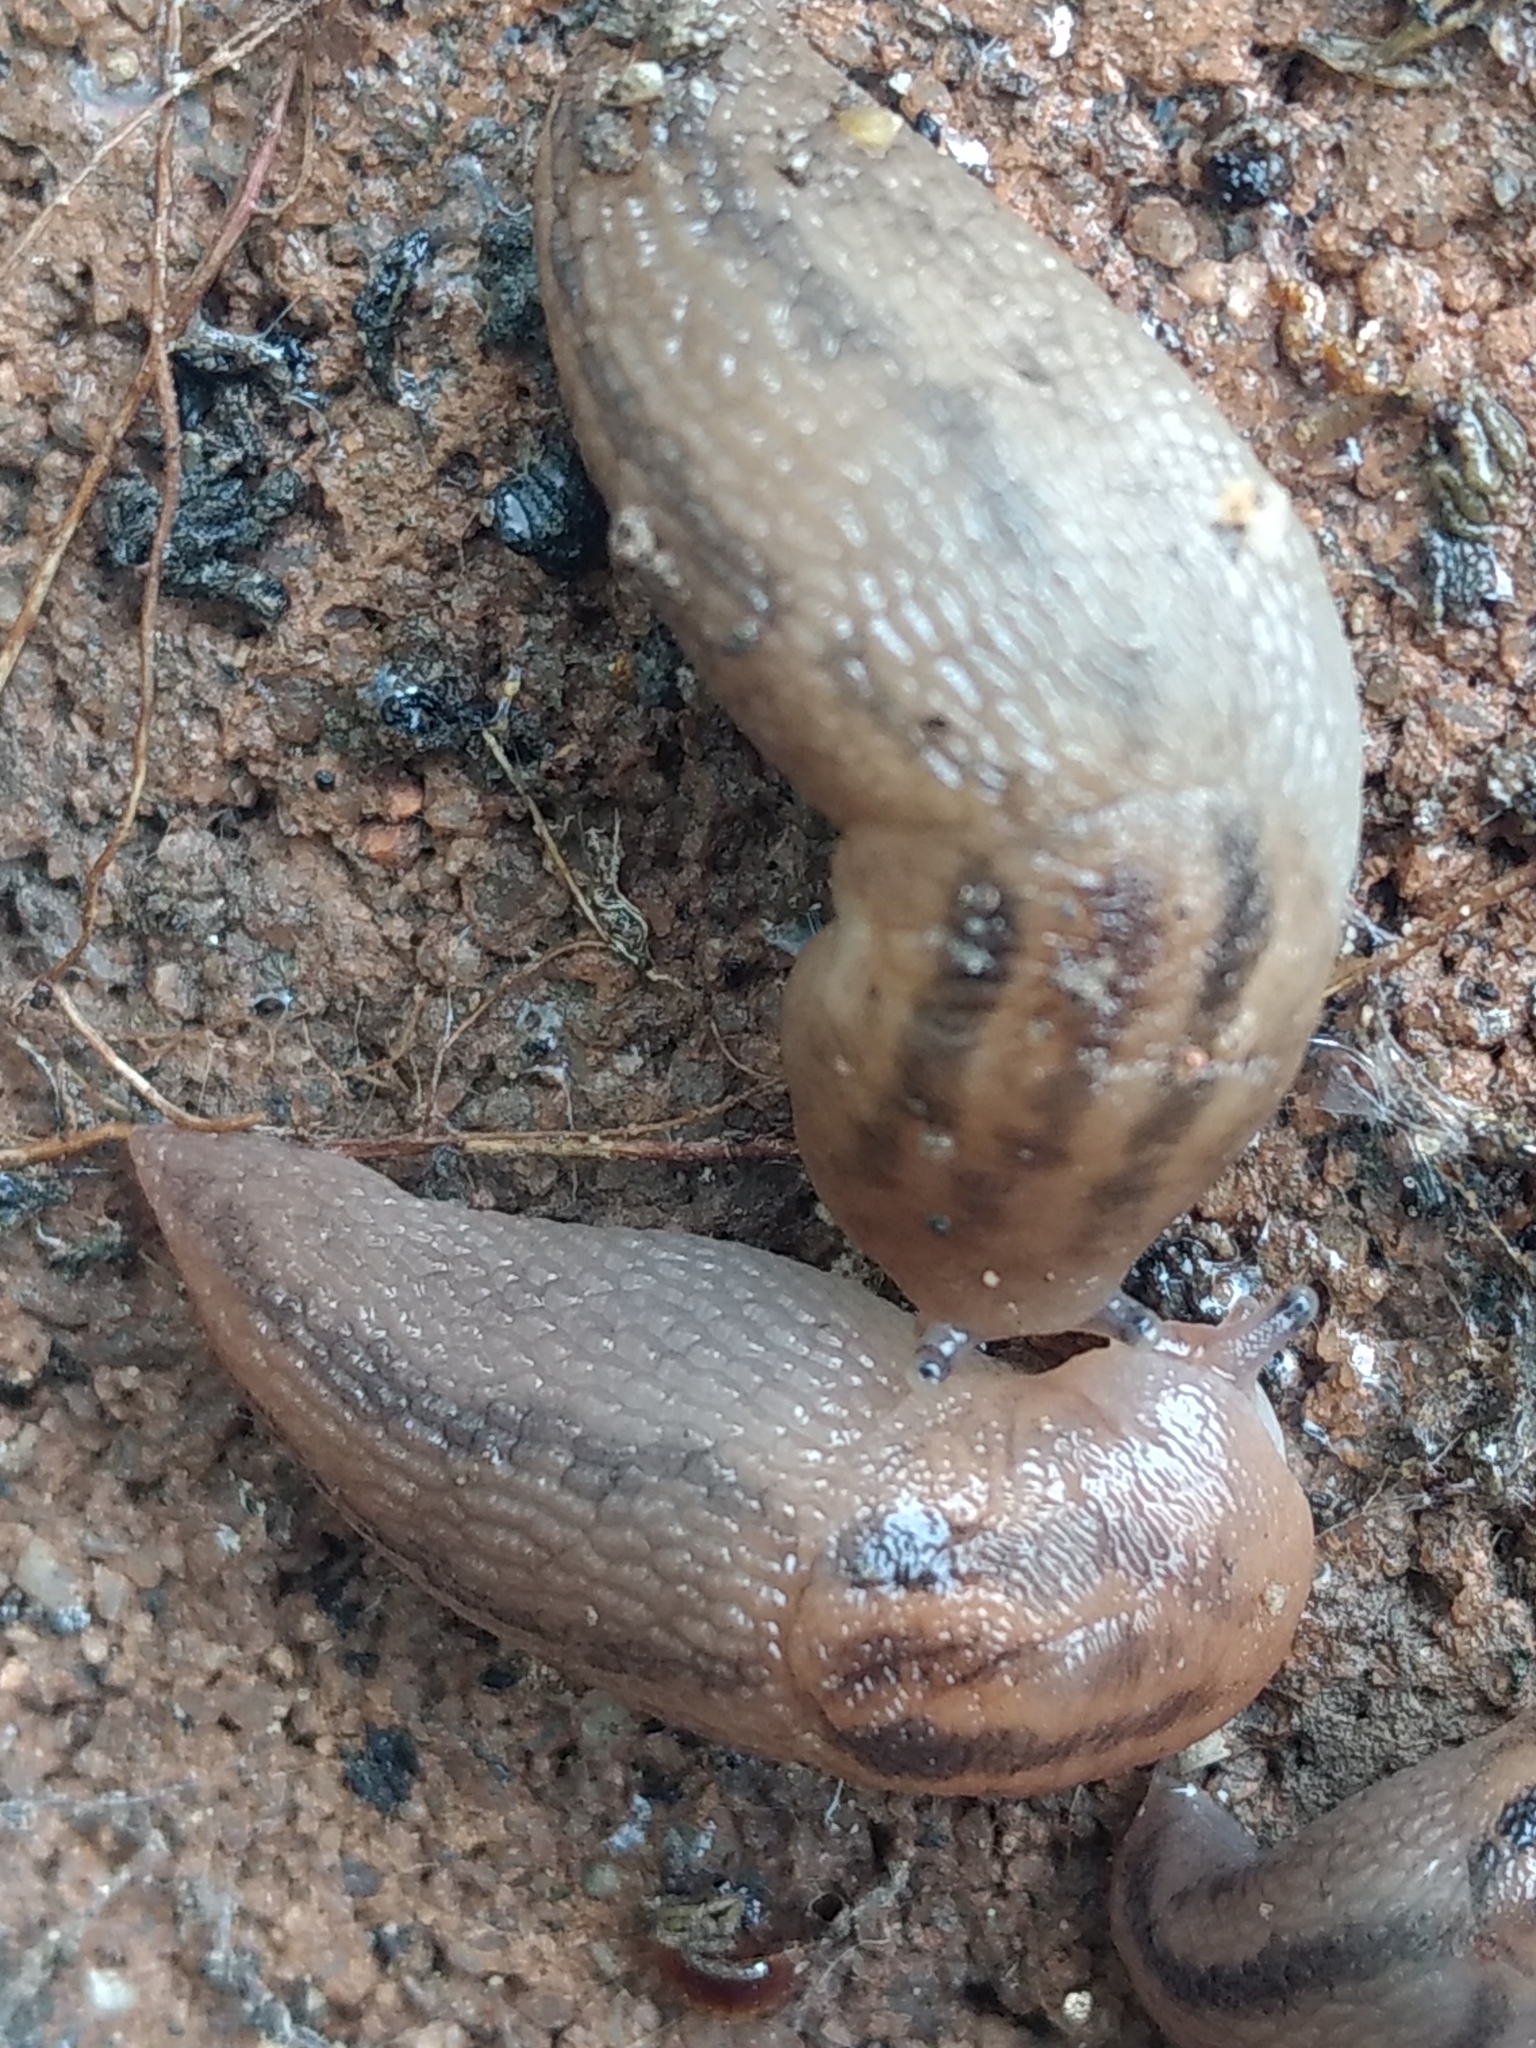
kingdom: Animalia
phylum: Mollusca
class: Gastropoda
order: Stylommatophora
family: Limacidae
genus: Ambigolimax
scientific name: Ambigolimax
